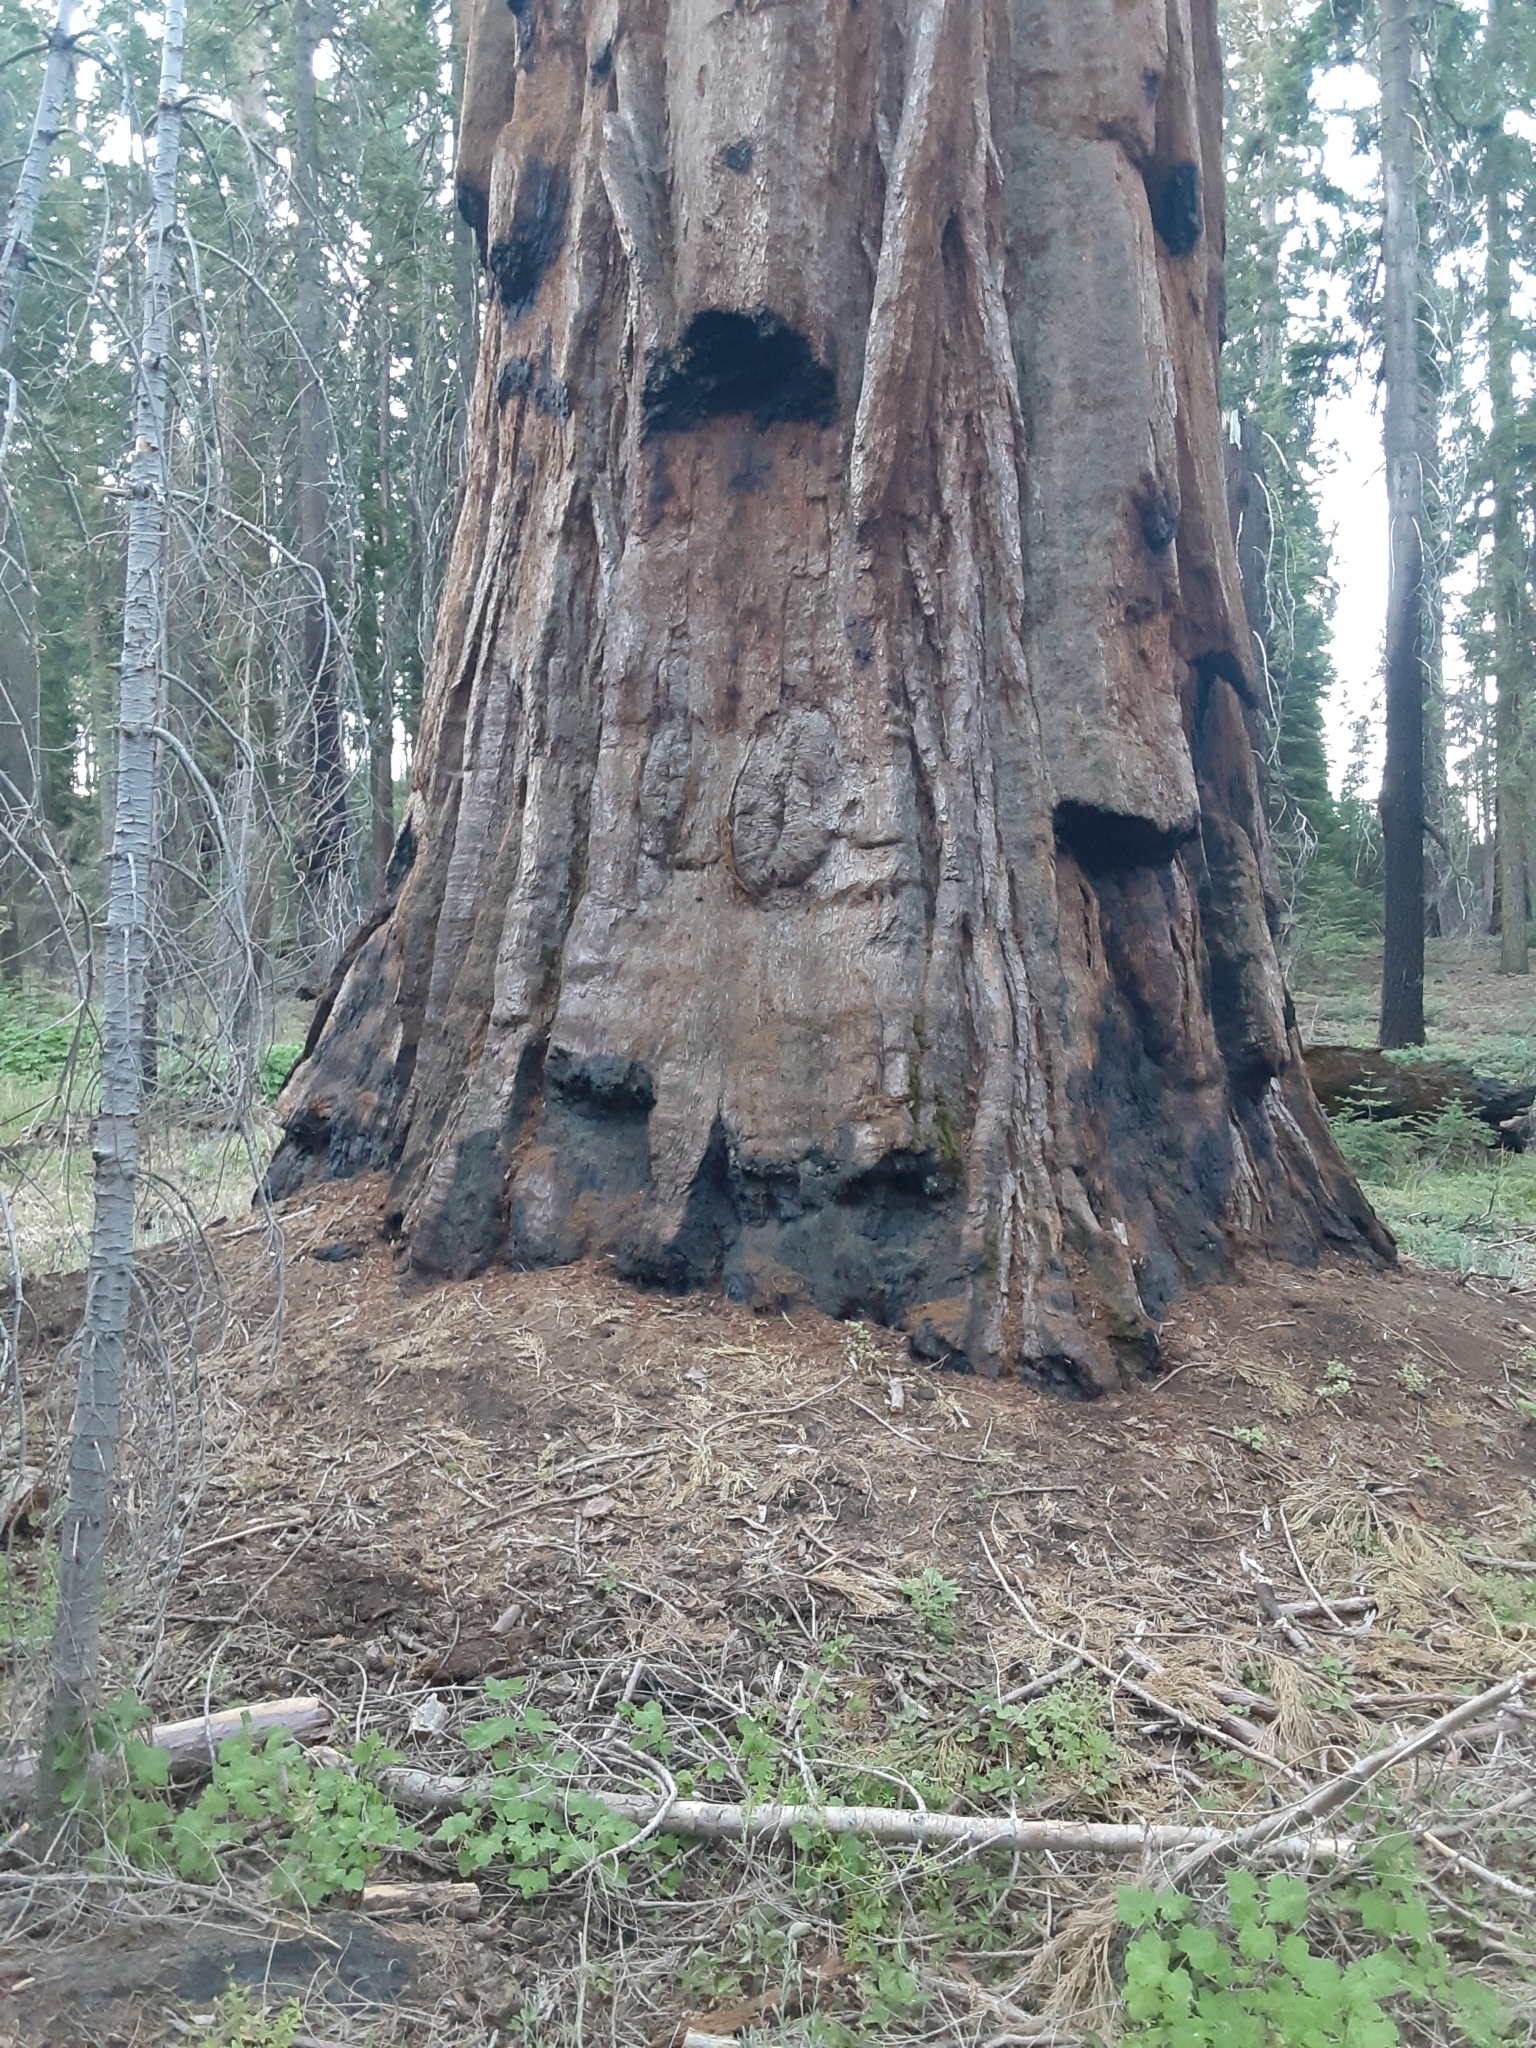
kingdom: Plantae
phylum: Tracheophyta
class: Pinopsida
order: Pinales
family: Cupressaceae
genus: Sequoiadendron
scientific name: Sequoiadendron giganteum
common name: Wellingtonia
